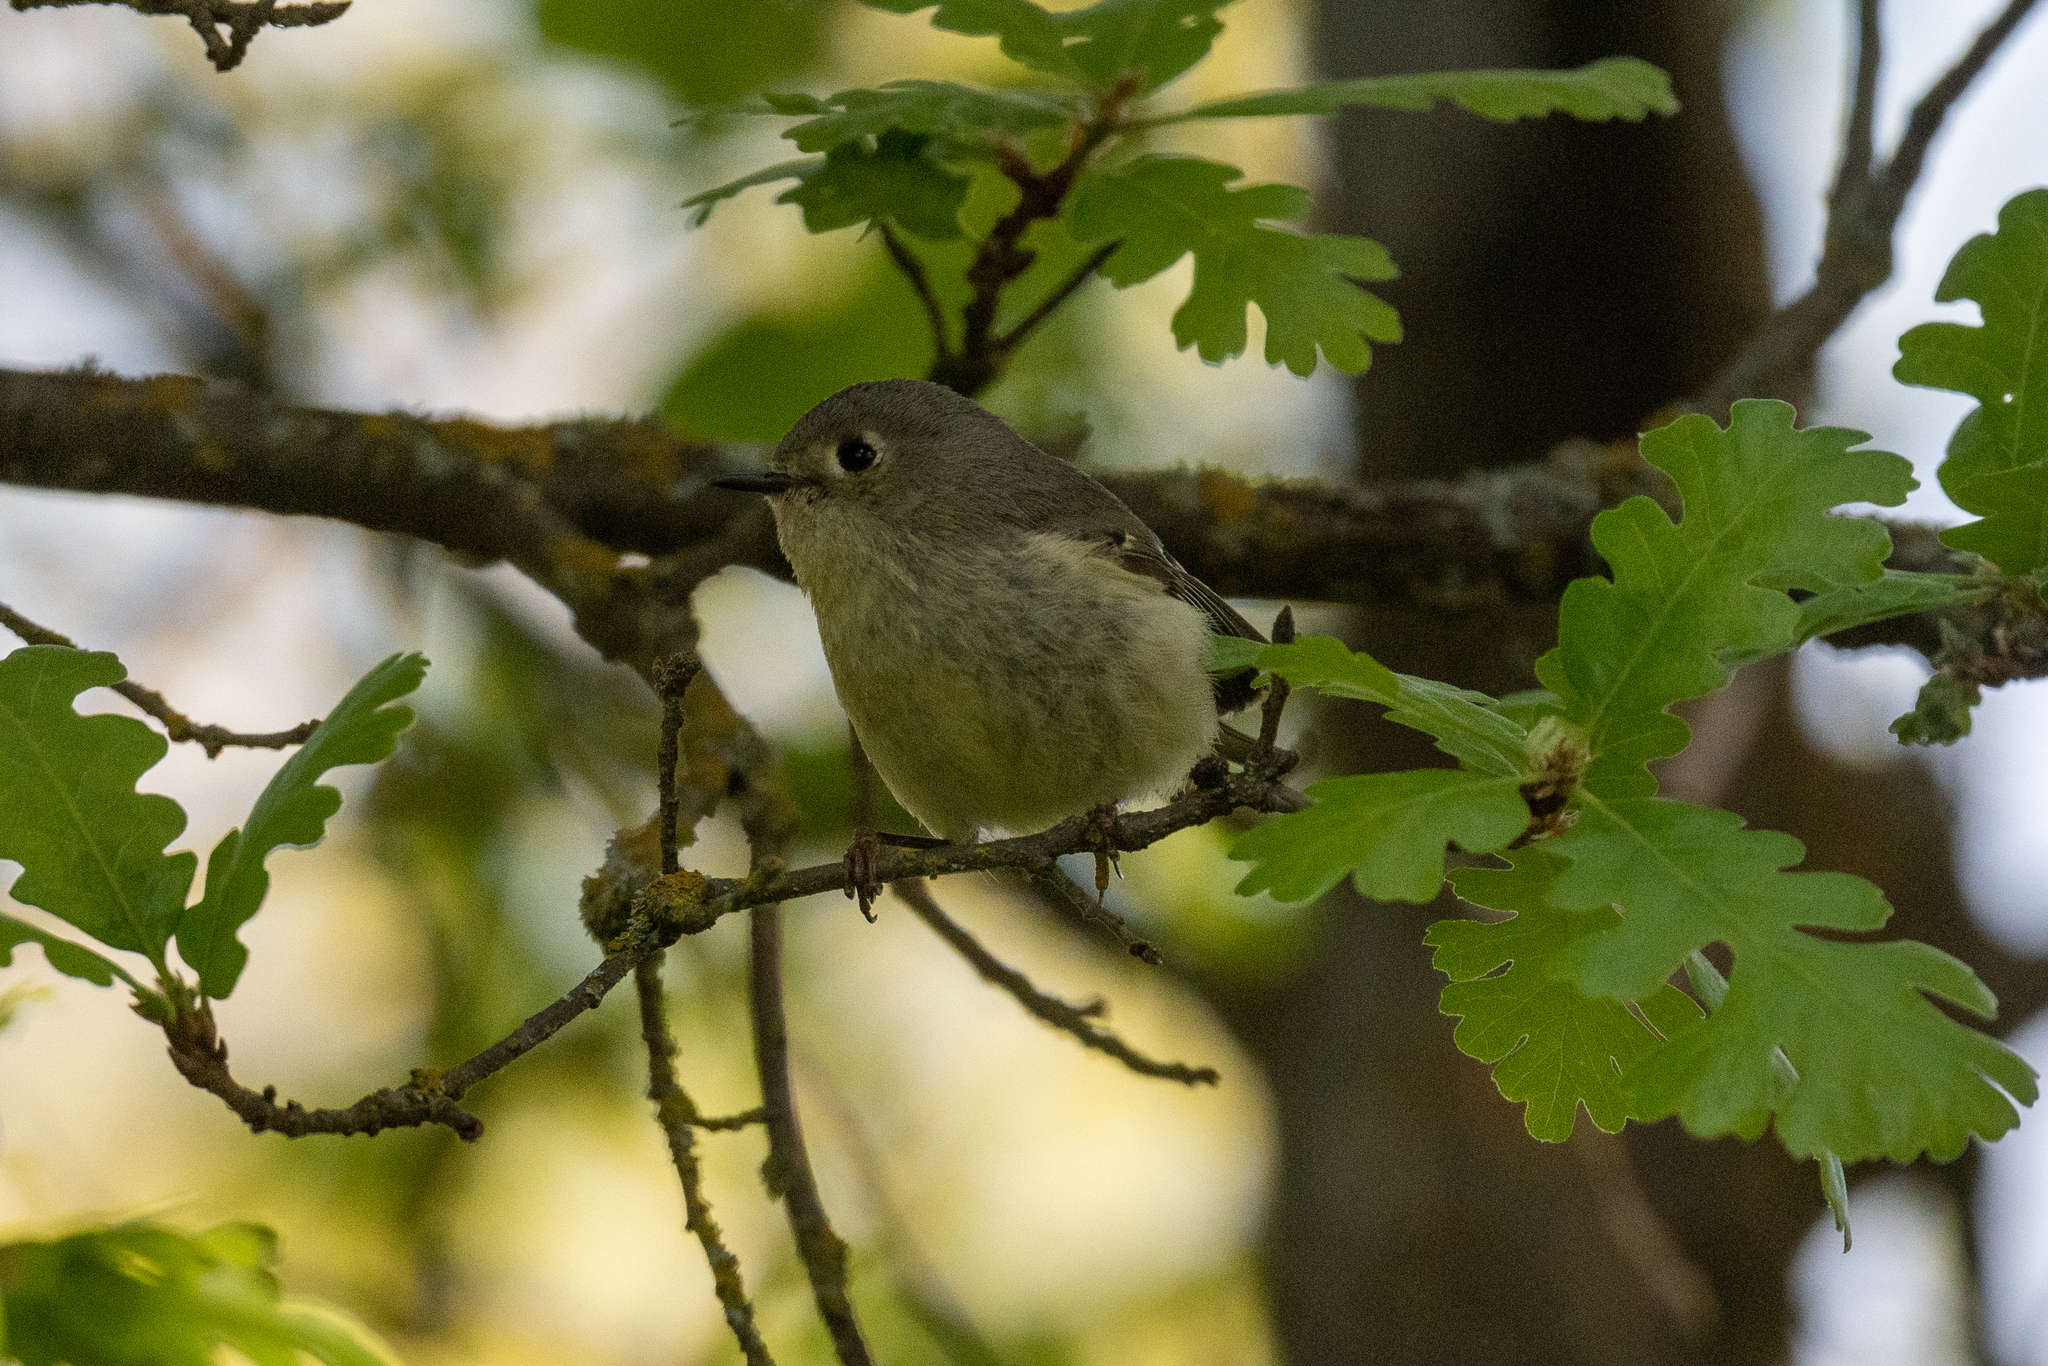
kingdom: Animalia
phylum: Chordata
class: Aves
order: Passeriformes
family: Regulidae
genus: Regulus
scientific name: Regulus calendula
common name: Ruby-crowned kinglet
